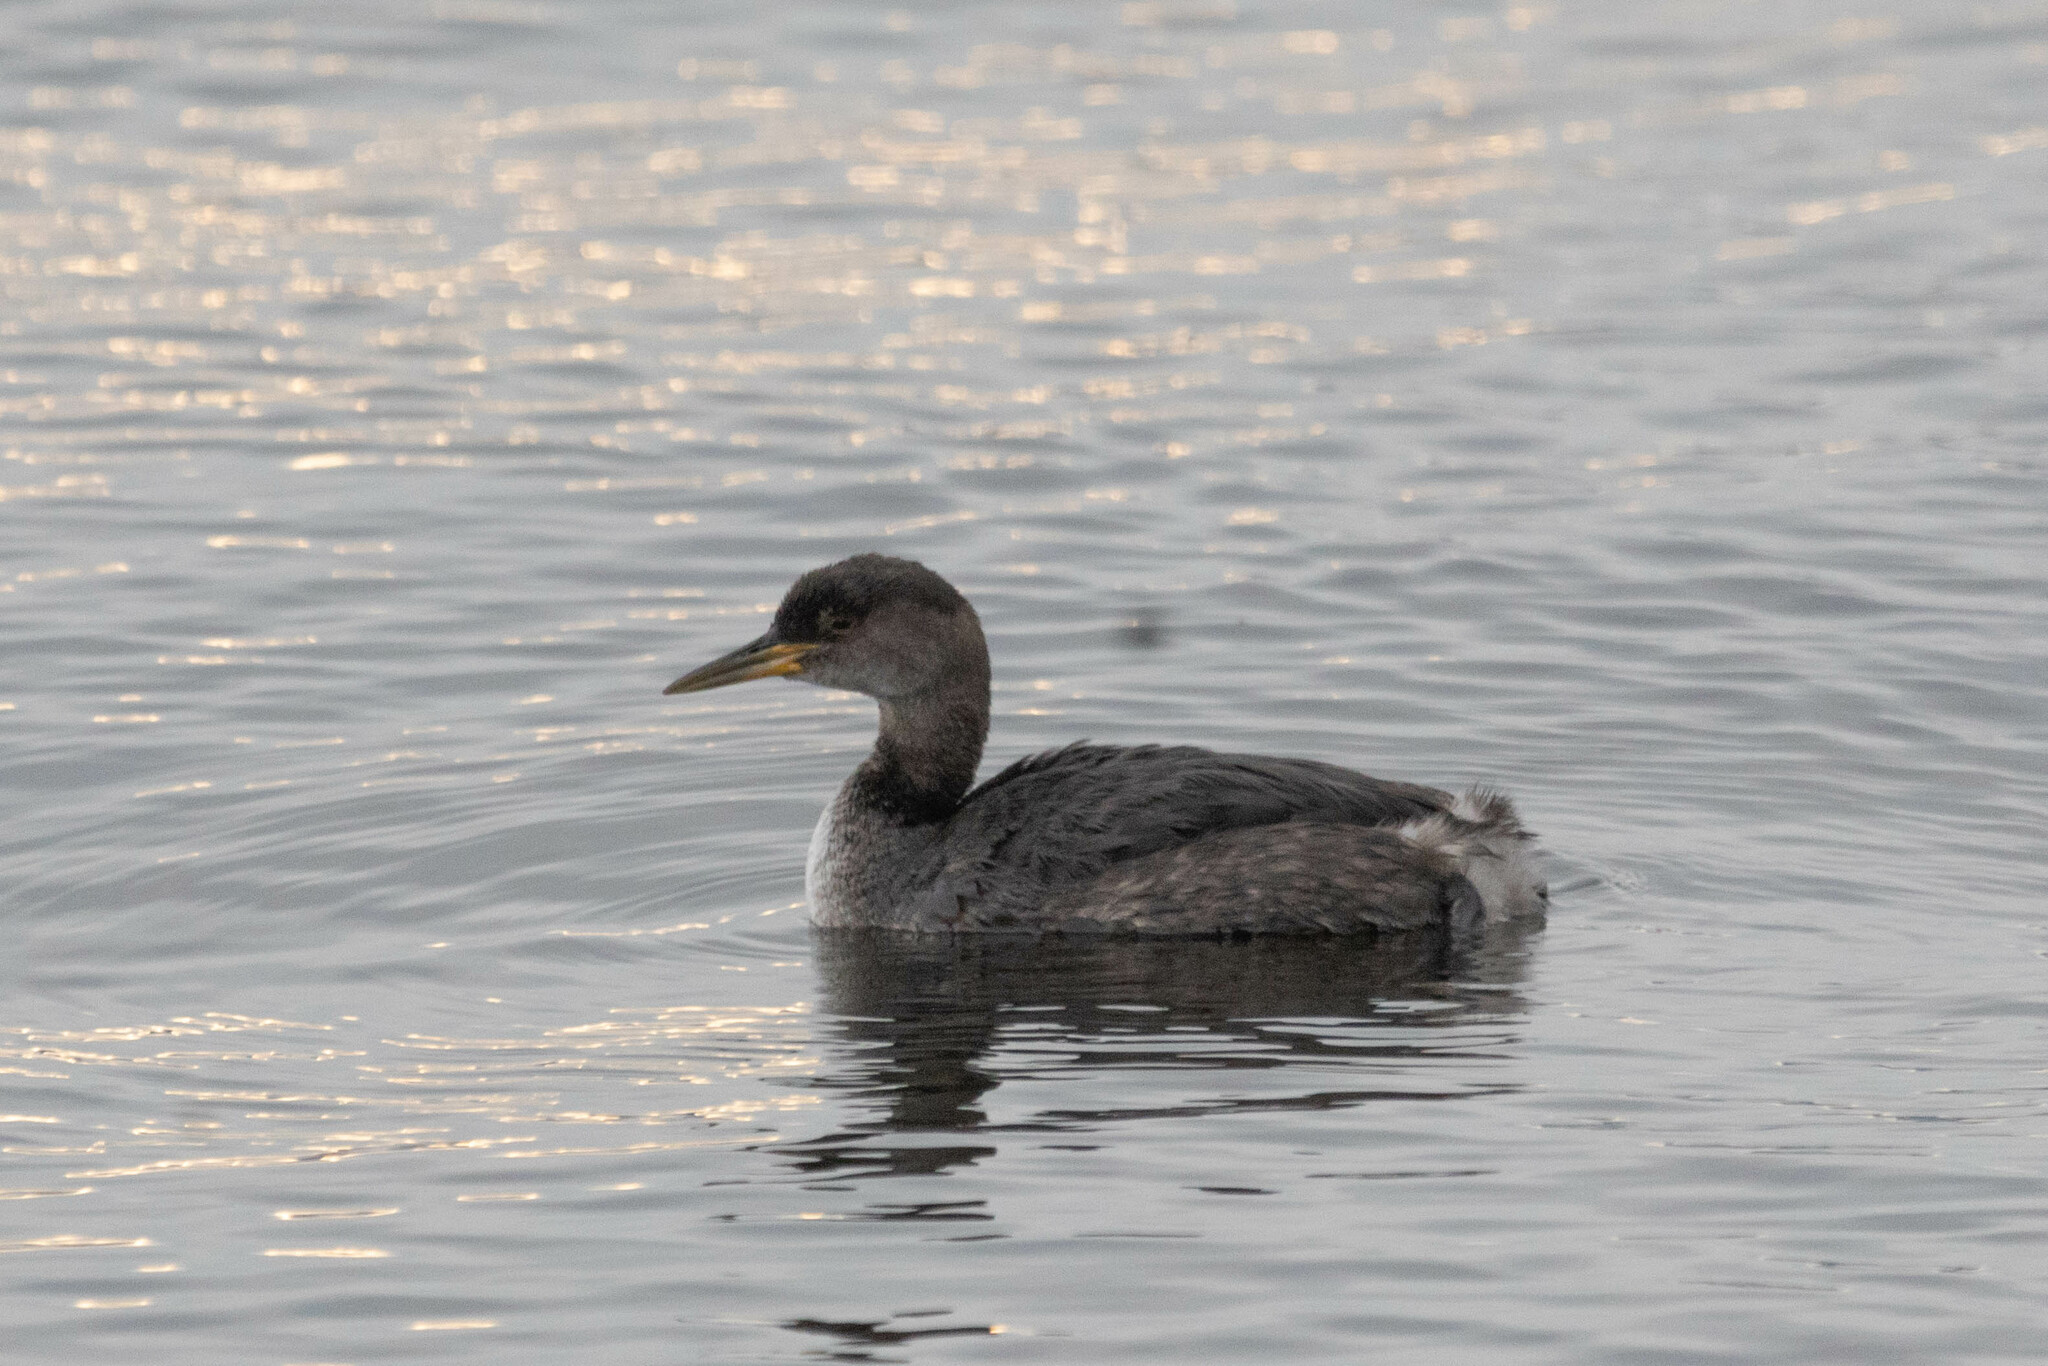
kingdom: Animalia
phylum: Chordata
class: Aves
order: Podicipediformes
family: Podicipedidae
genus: Podiceps
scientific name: Podiceps grisegena
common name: Red-necked grebe
